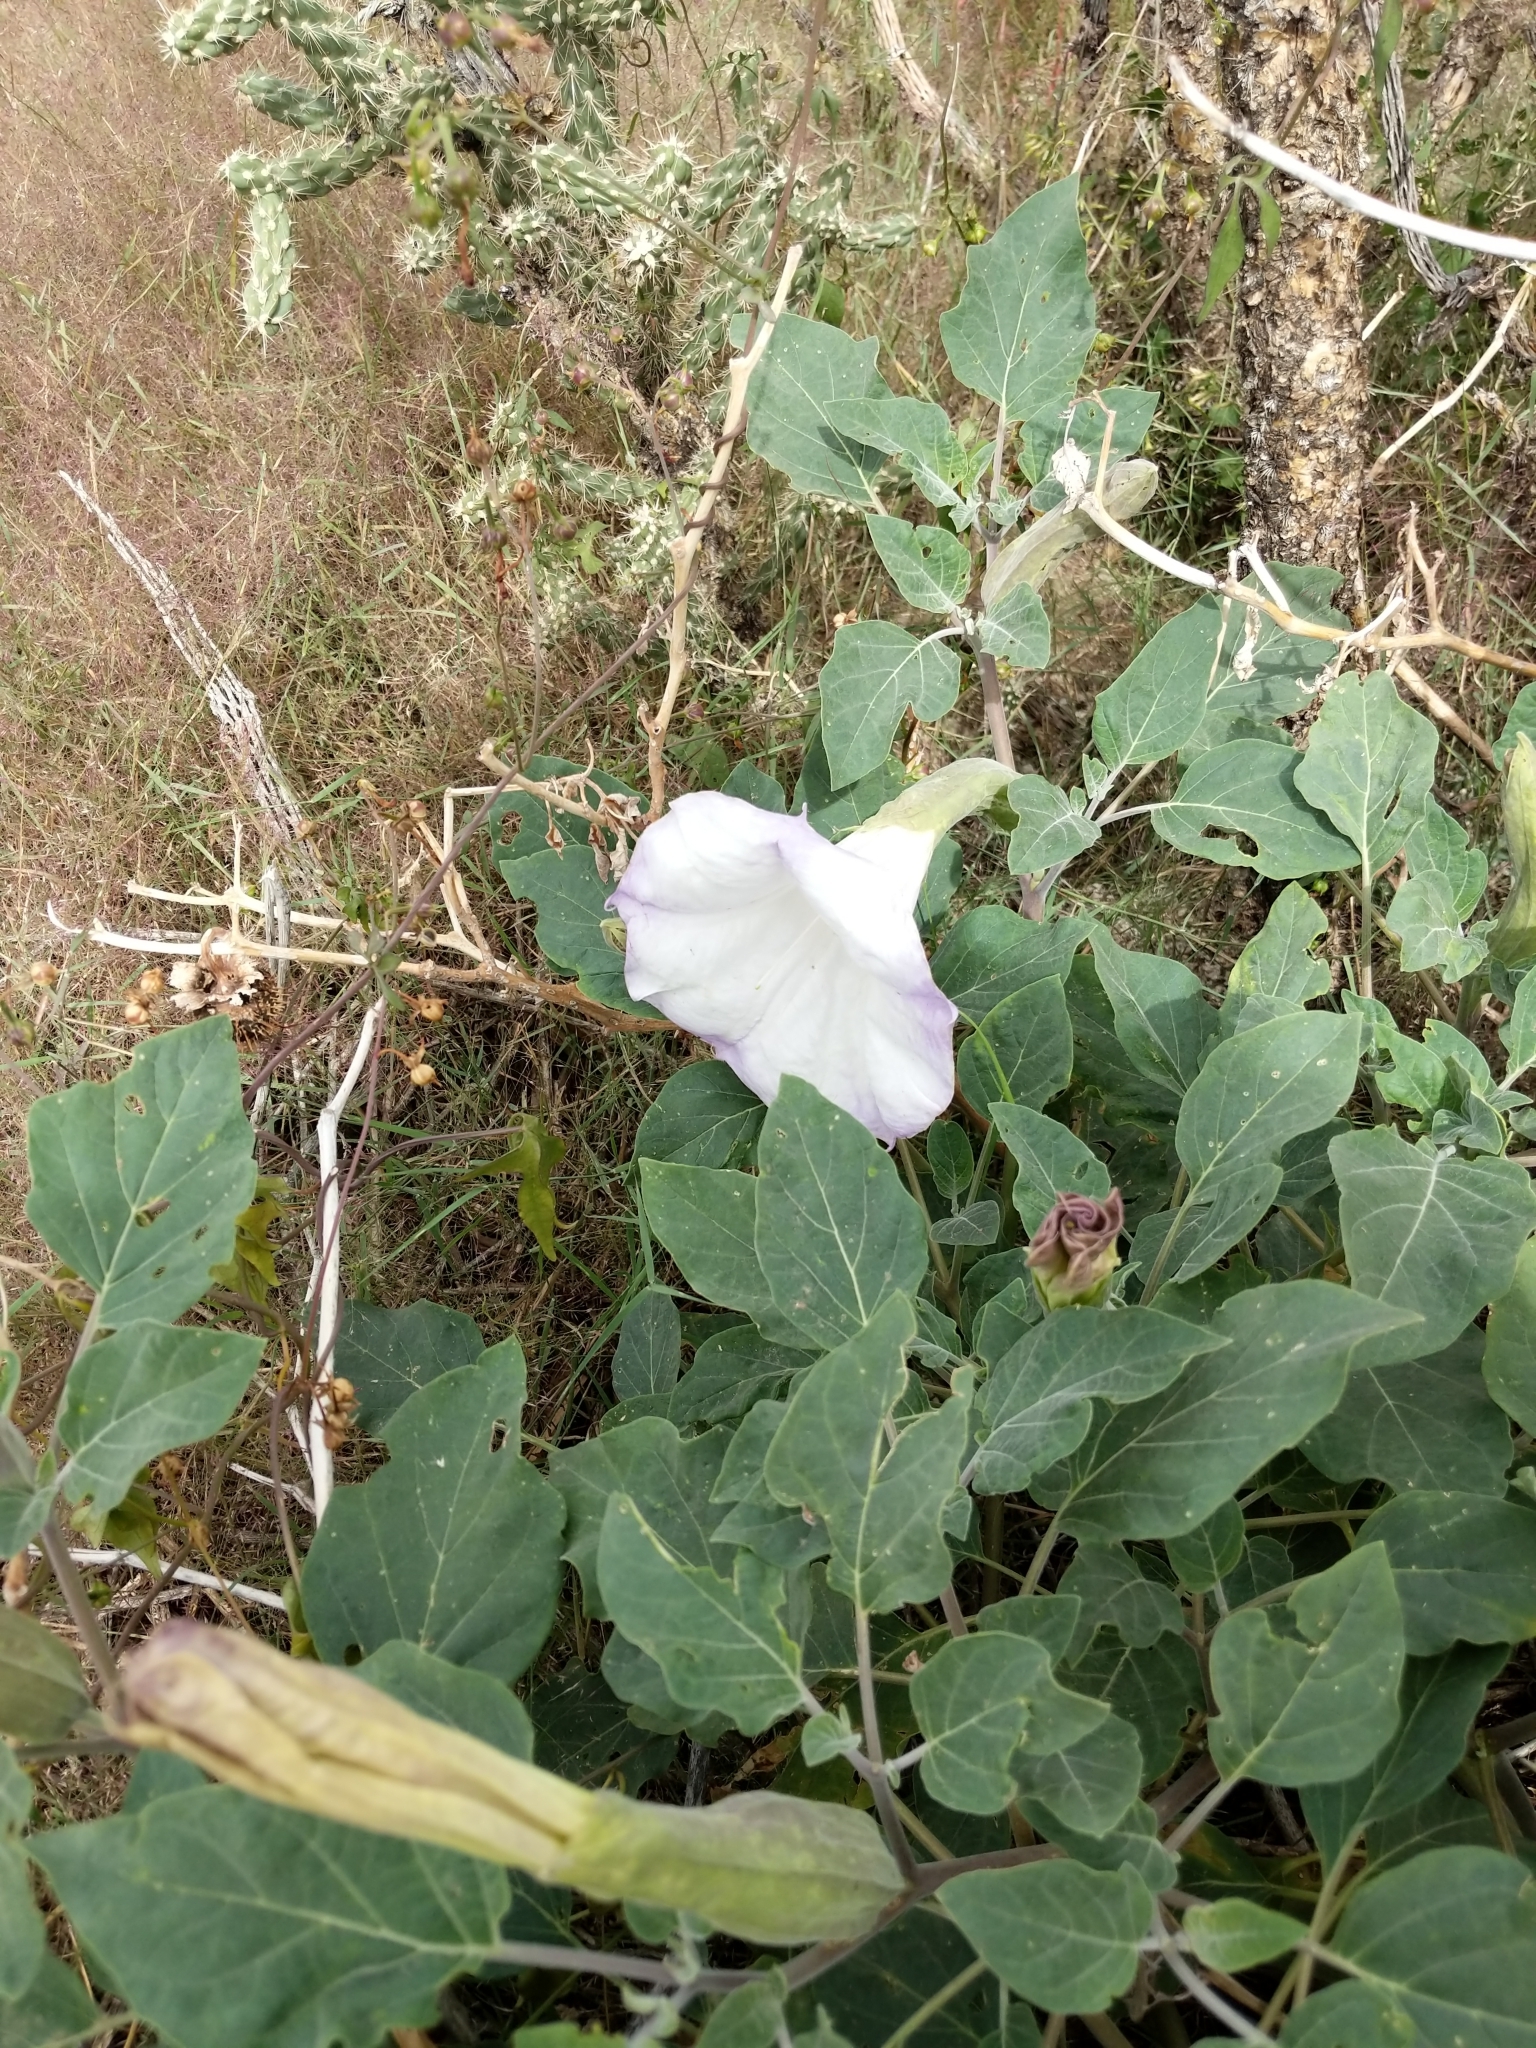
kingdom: Plantae
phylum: Tracheophyta
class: Magnoliopsida
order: Solanales
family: Solanaceae
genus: Datura
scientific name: Datura wrightii
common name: Sacred thorn-apple
